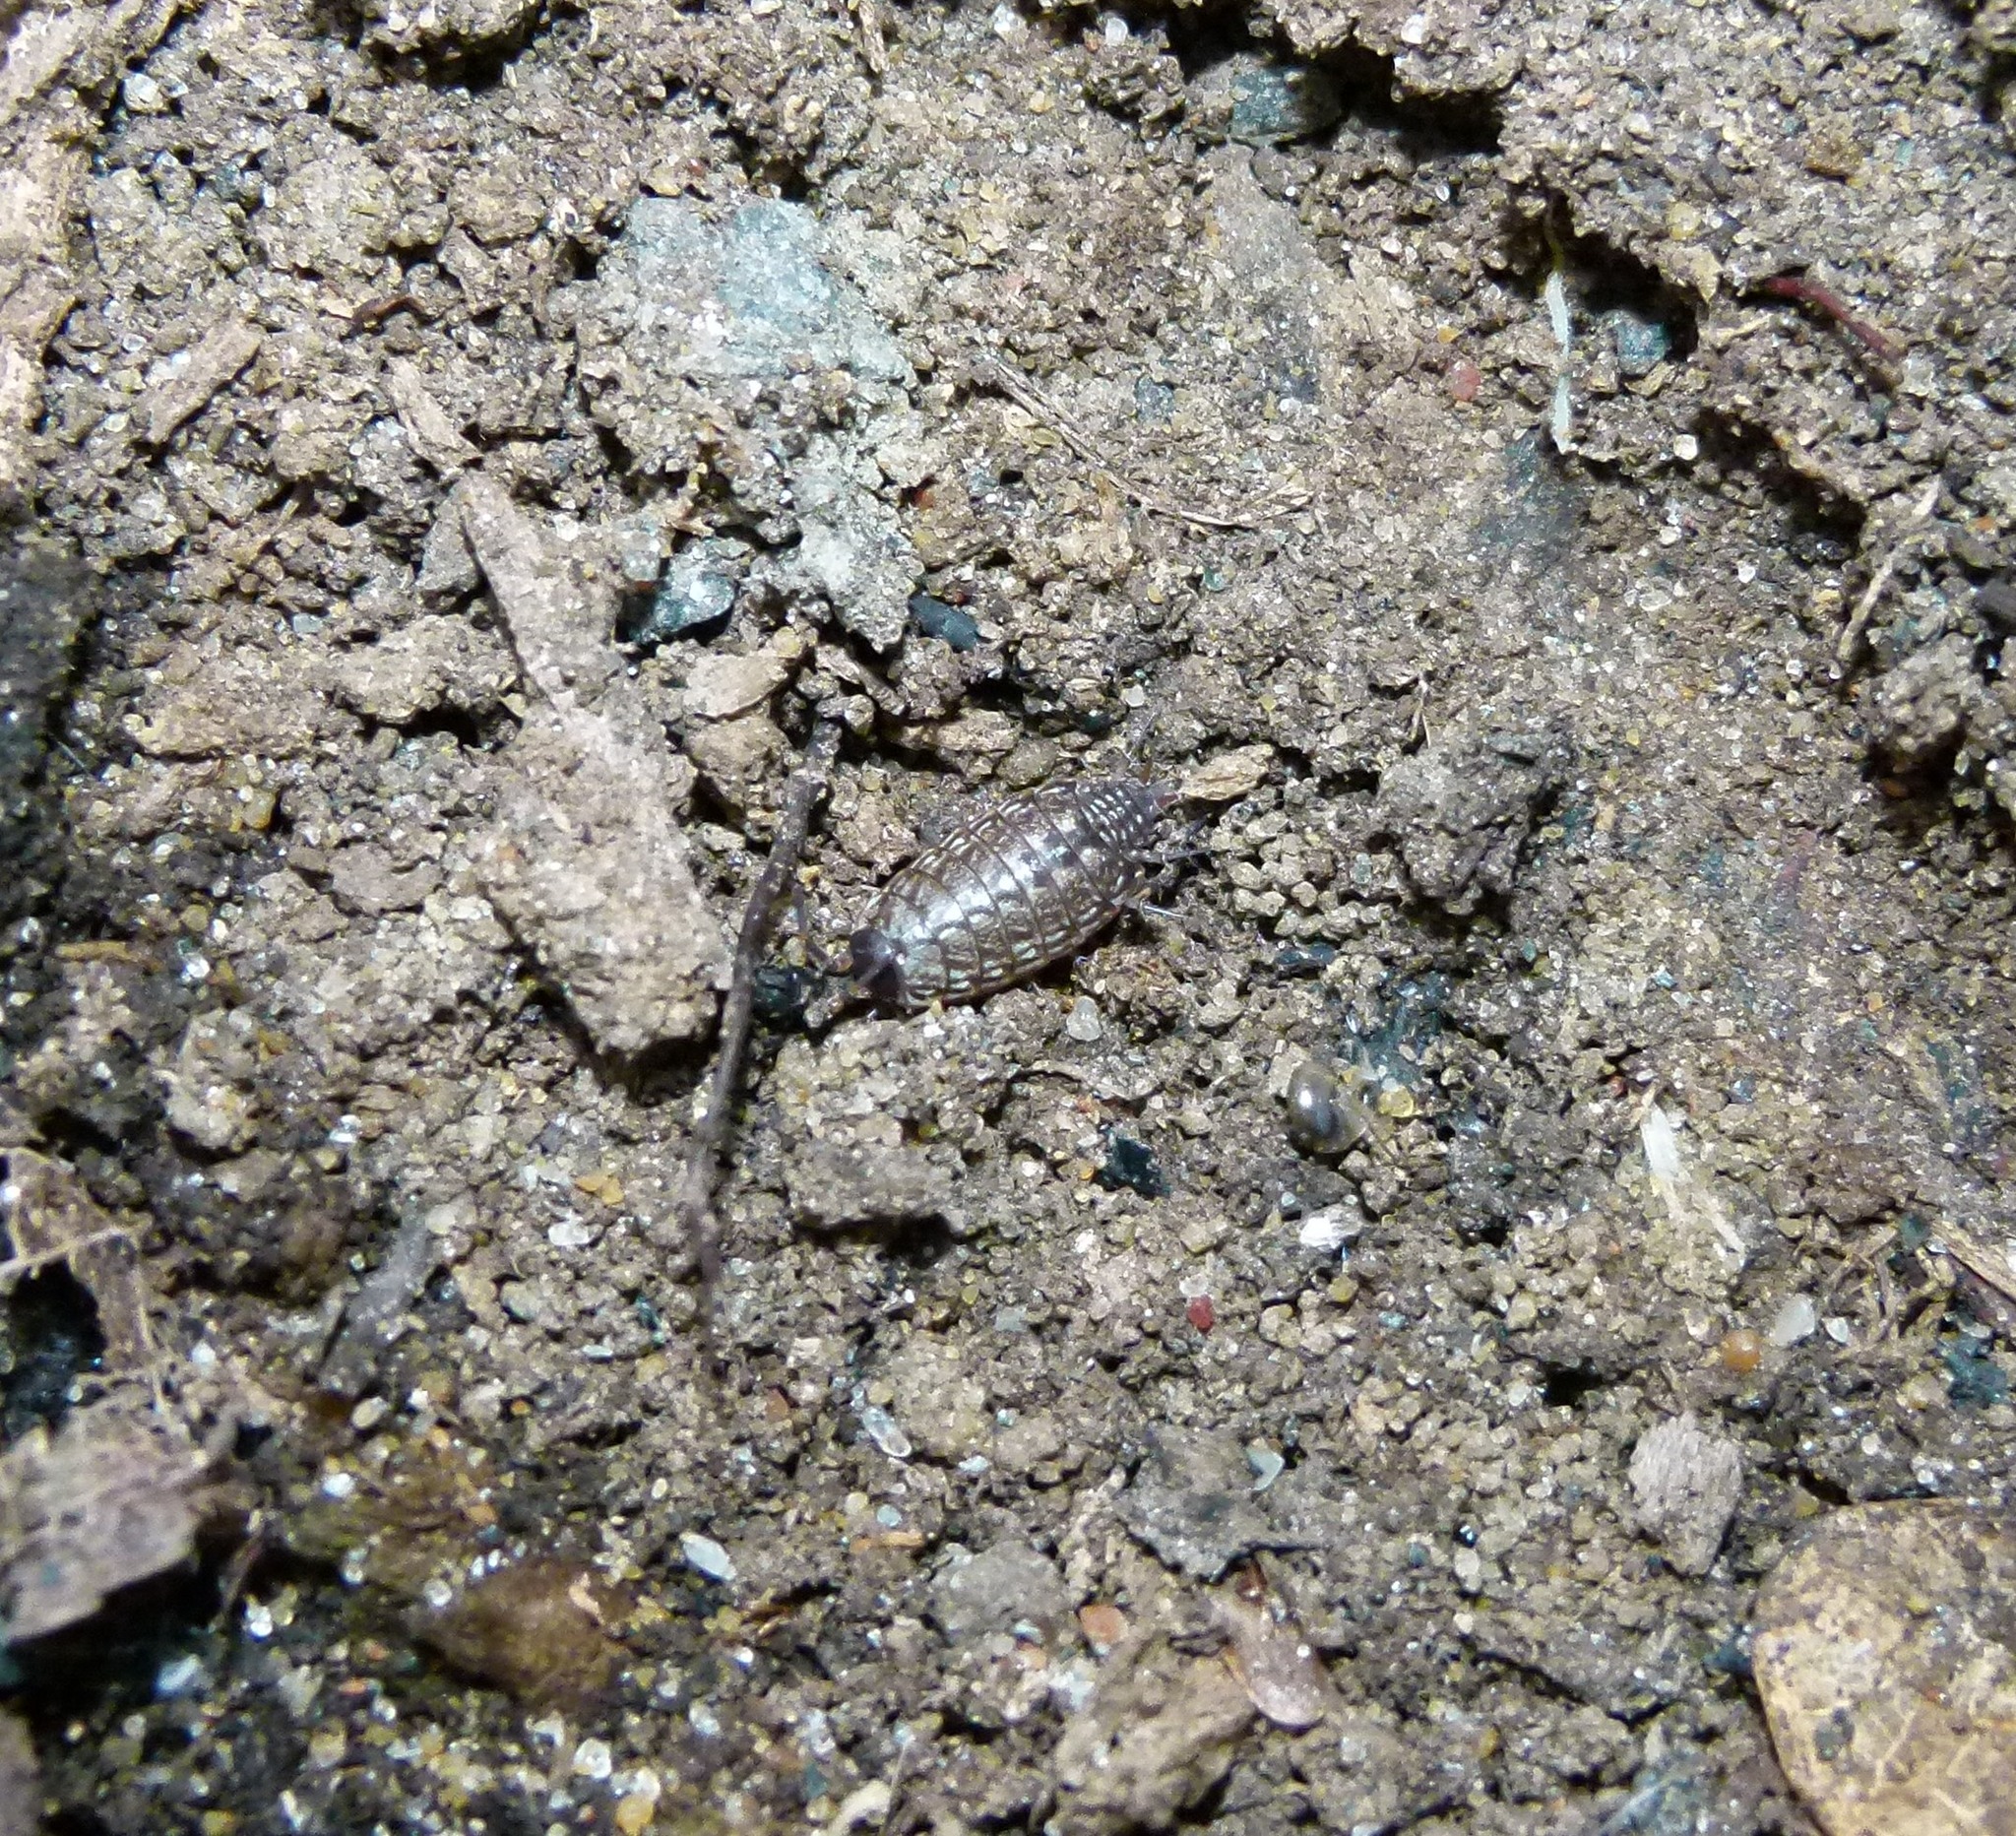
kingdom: Animalia
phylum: Arthropoda
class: Malacostraca
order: Isopoda
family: Philosciidae
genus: Philoscia
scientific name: Philoscia muscorum
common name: Common striped woodlouse
